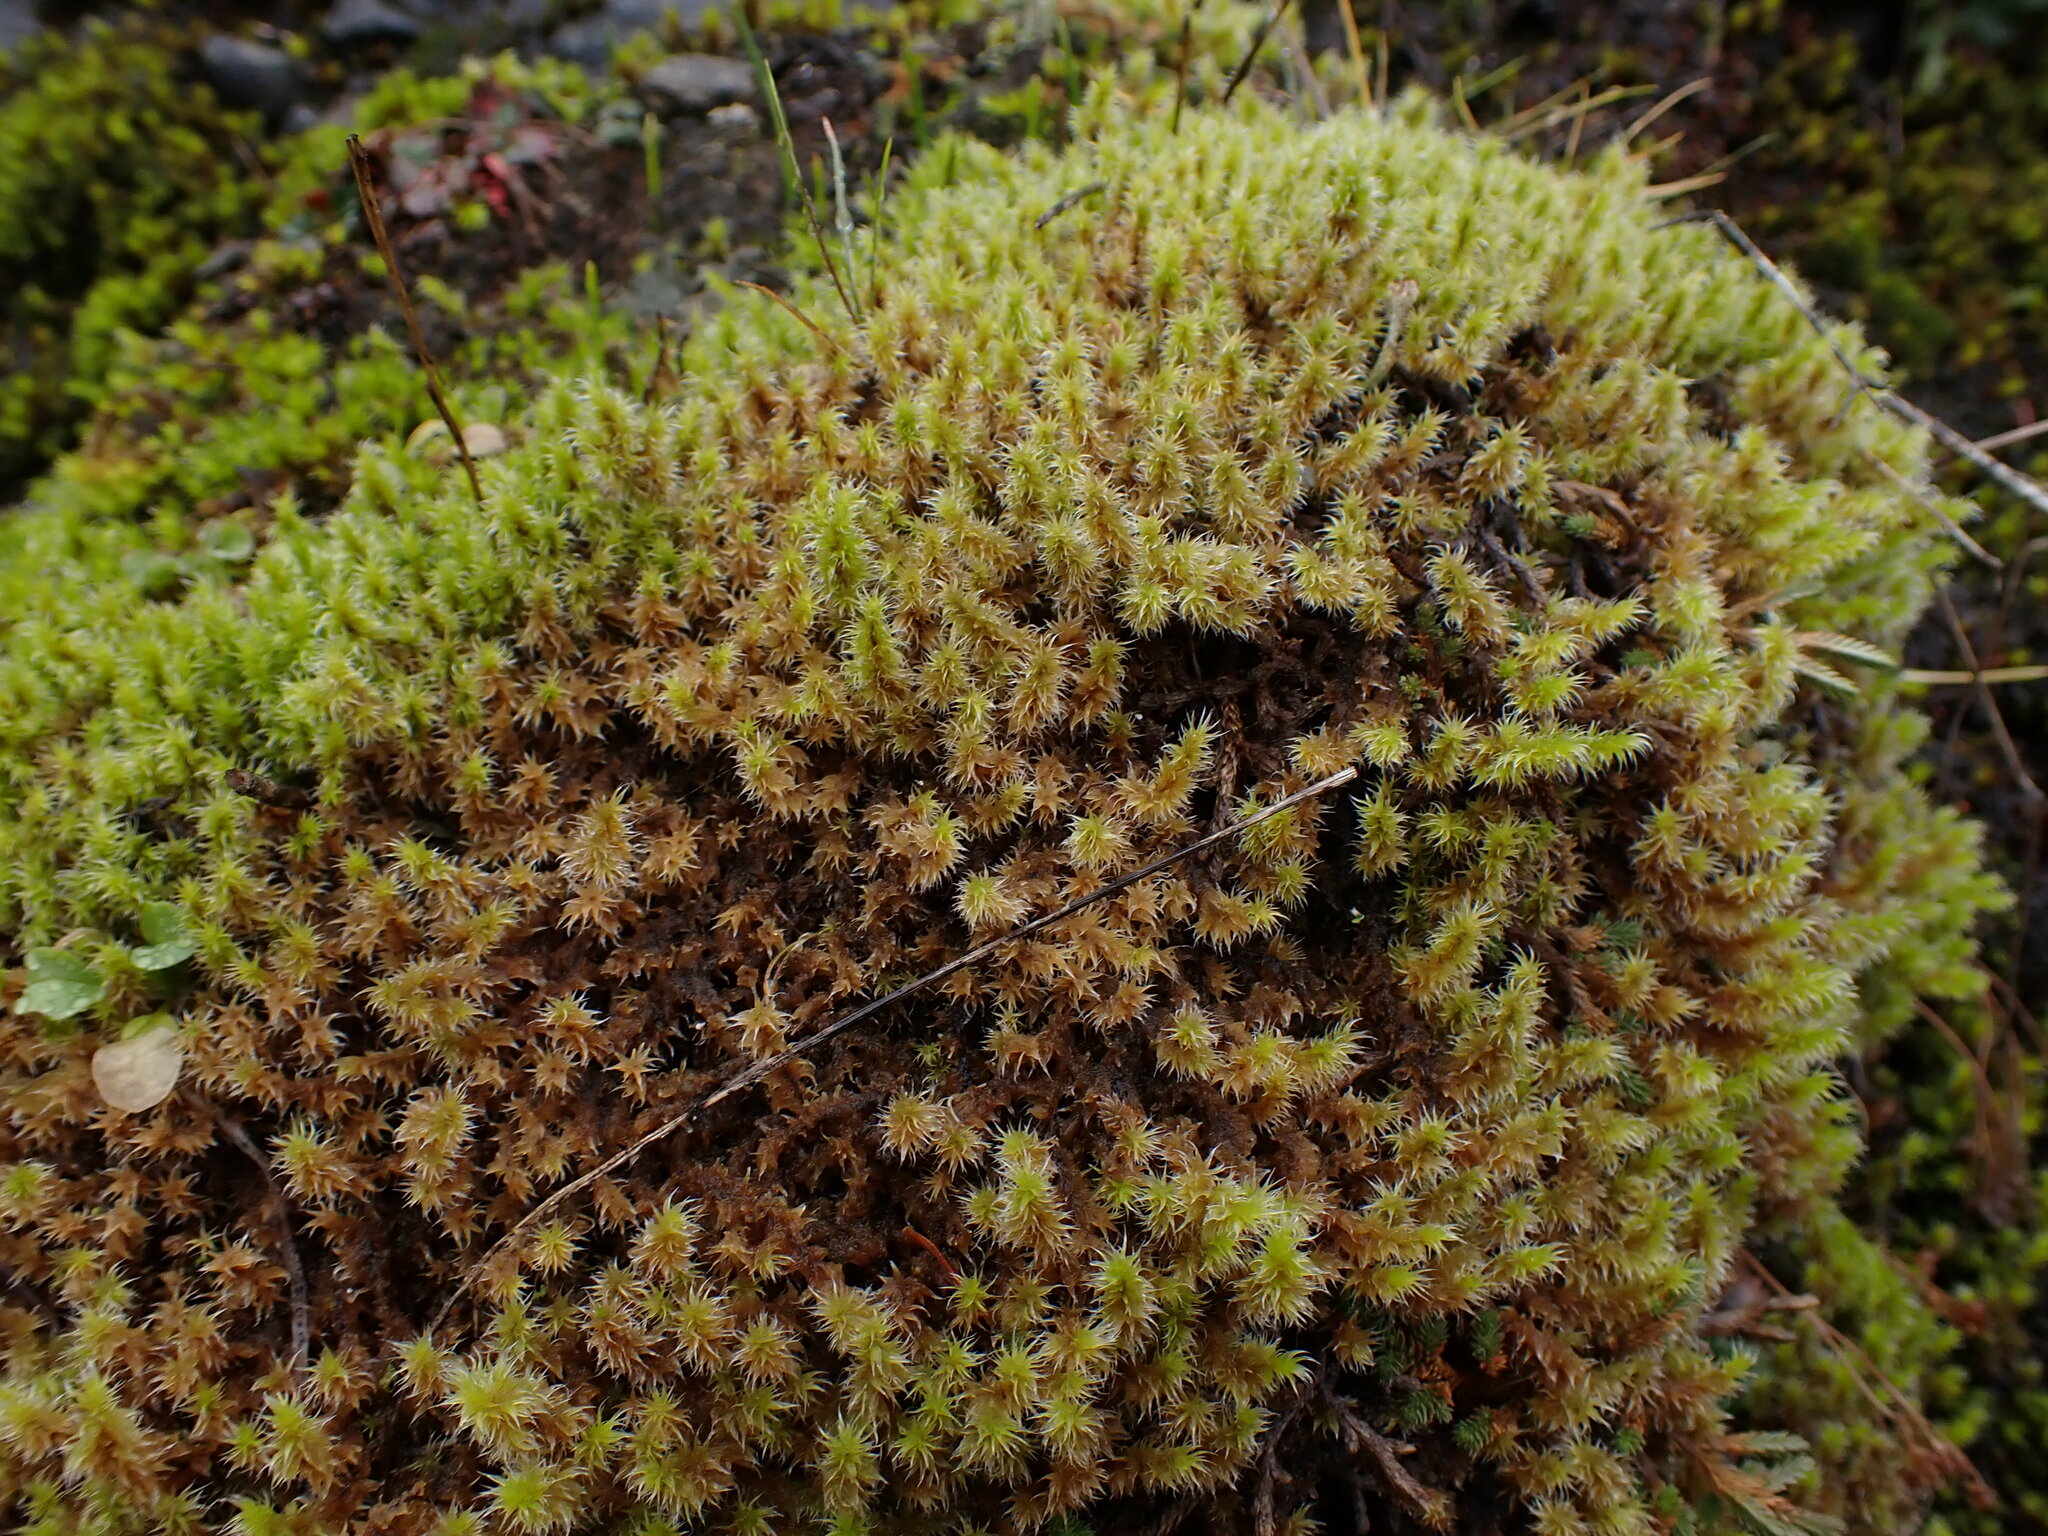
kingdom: Plantae
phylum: Bryophyta
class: Bryopsida
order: Grimmiales
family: Grimmiaceae
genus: Niphotrichum
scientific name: Niphotrichum elongatum
